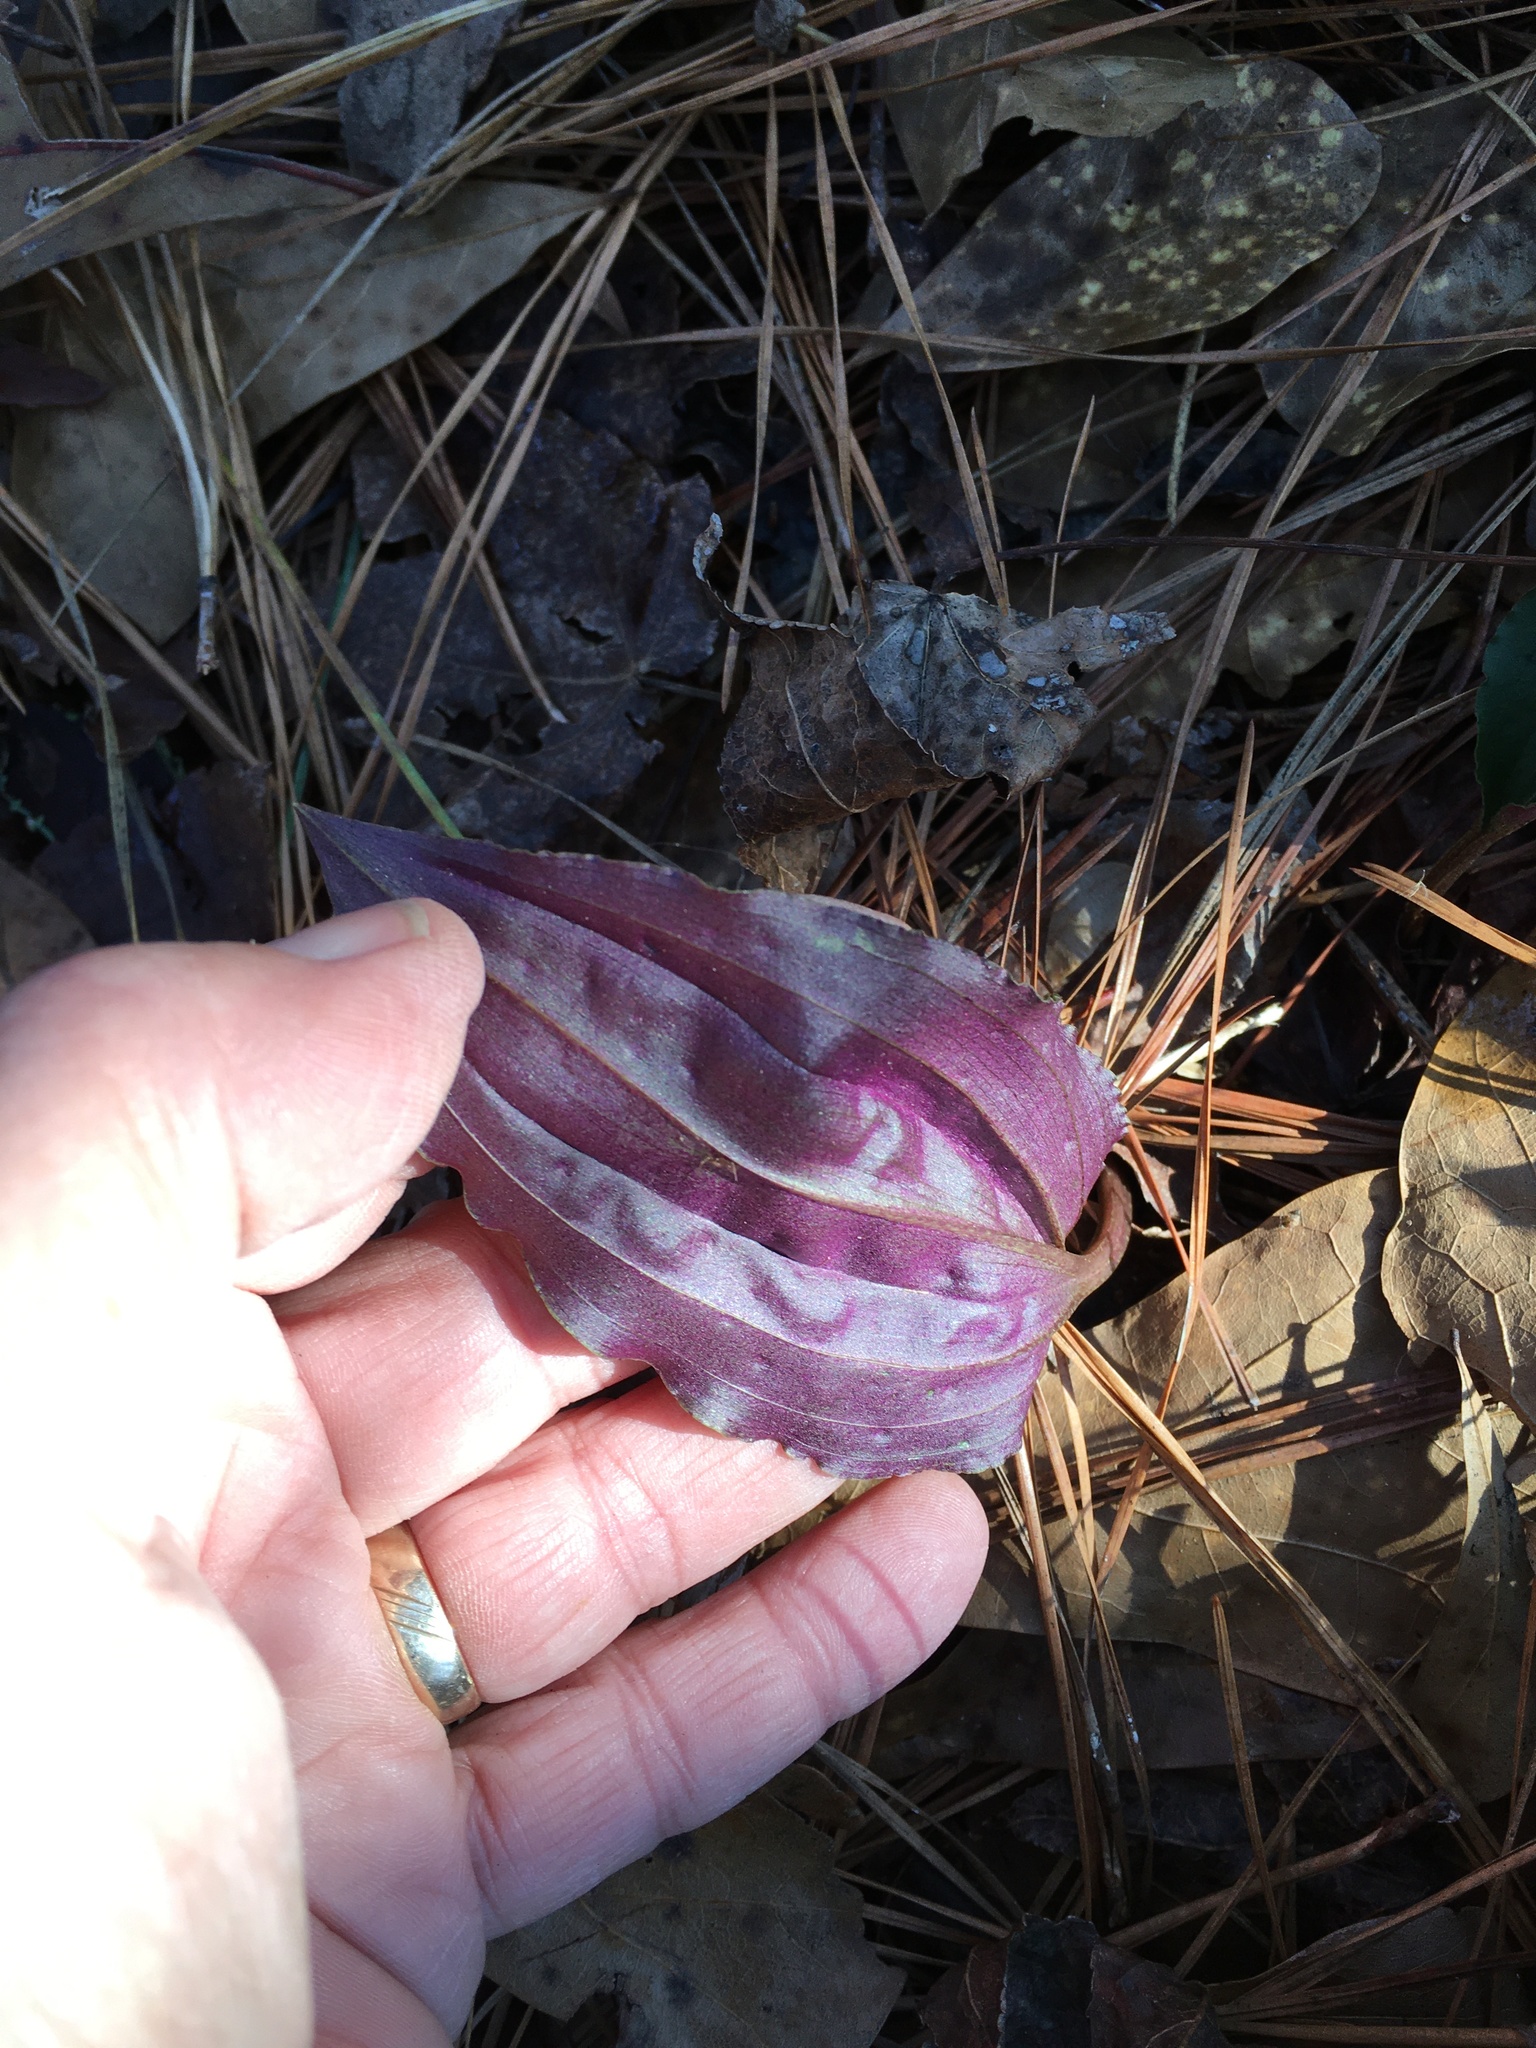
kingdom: Plantae
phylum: Tracheophyta
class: Liliopsida
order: Asparagales
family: Orchidaceae
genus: Tipularia
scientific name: Tipularia discolor
